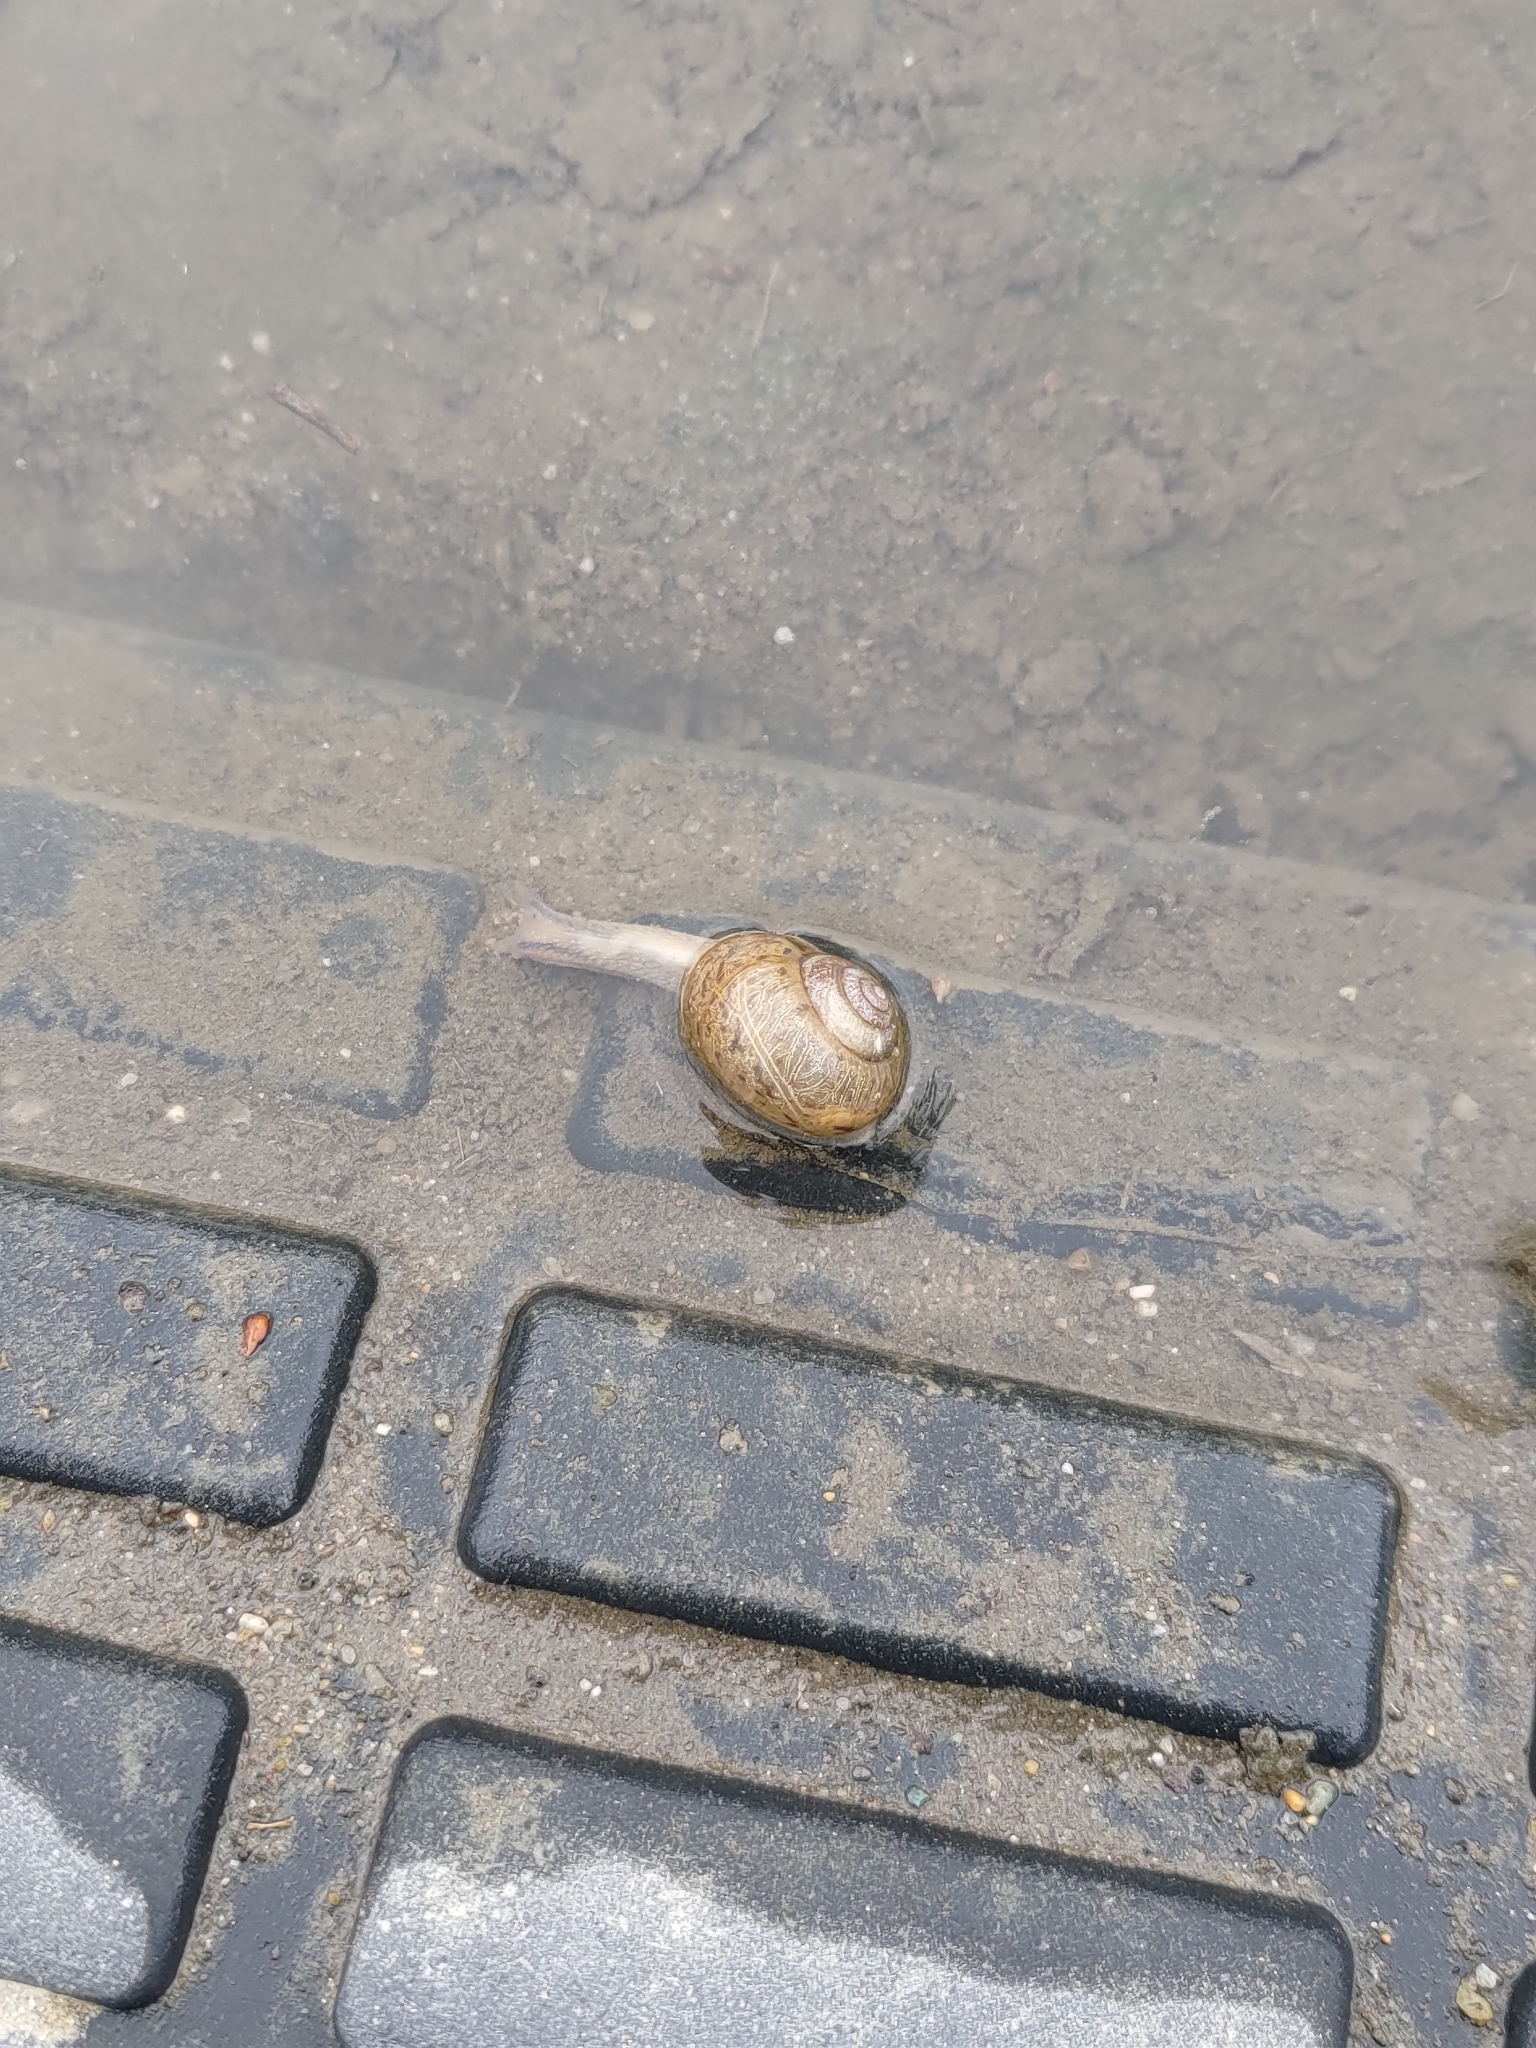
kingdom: Animalia
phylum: Mollusca
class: Gastropoda
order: Stylommatophora
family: Camaenidae
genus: Acusta
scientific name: Acusta sieboldtiana
